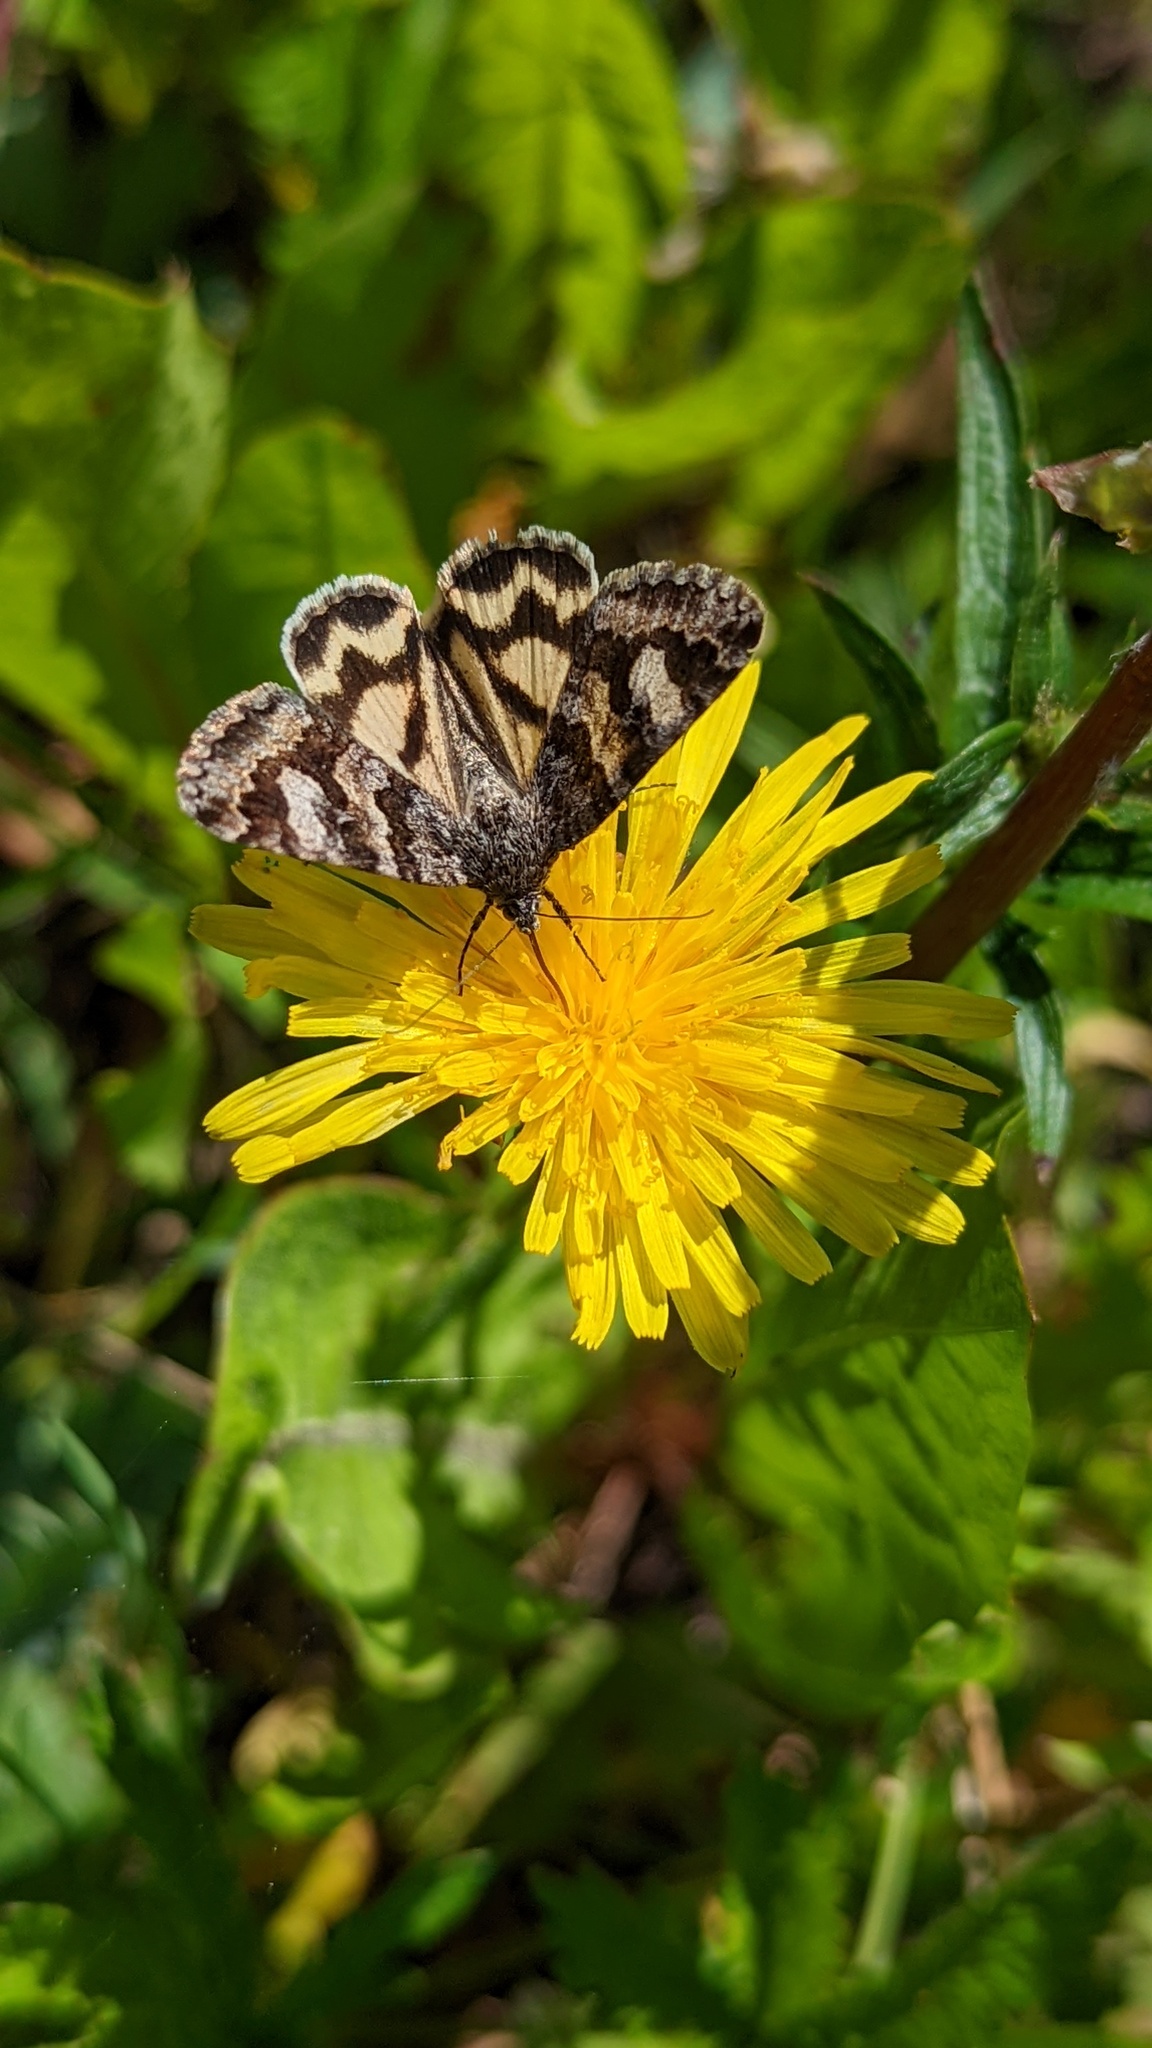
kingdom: Animalia
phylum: Arthropoda
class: Insecta
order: Lepidoptera
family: Erebidae
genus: Drasteria
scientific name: Drasteria hudsonica
